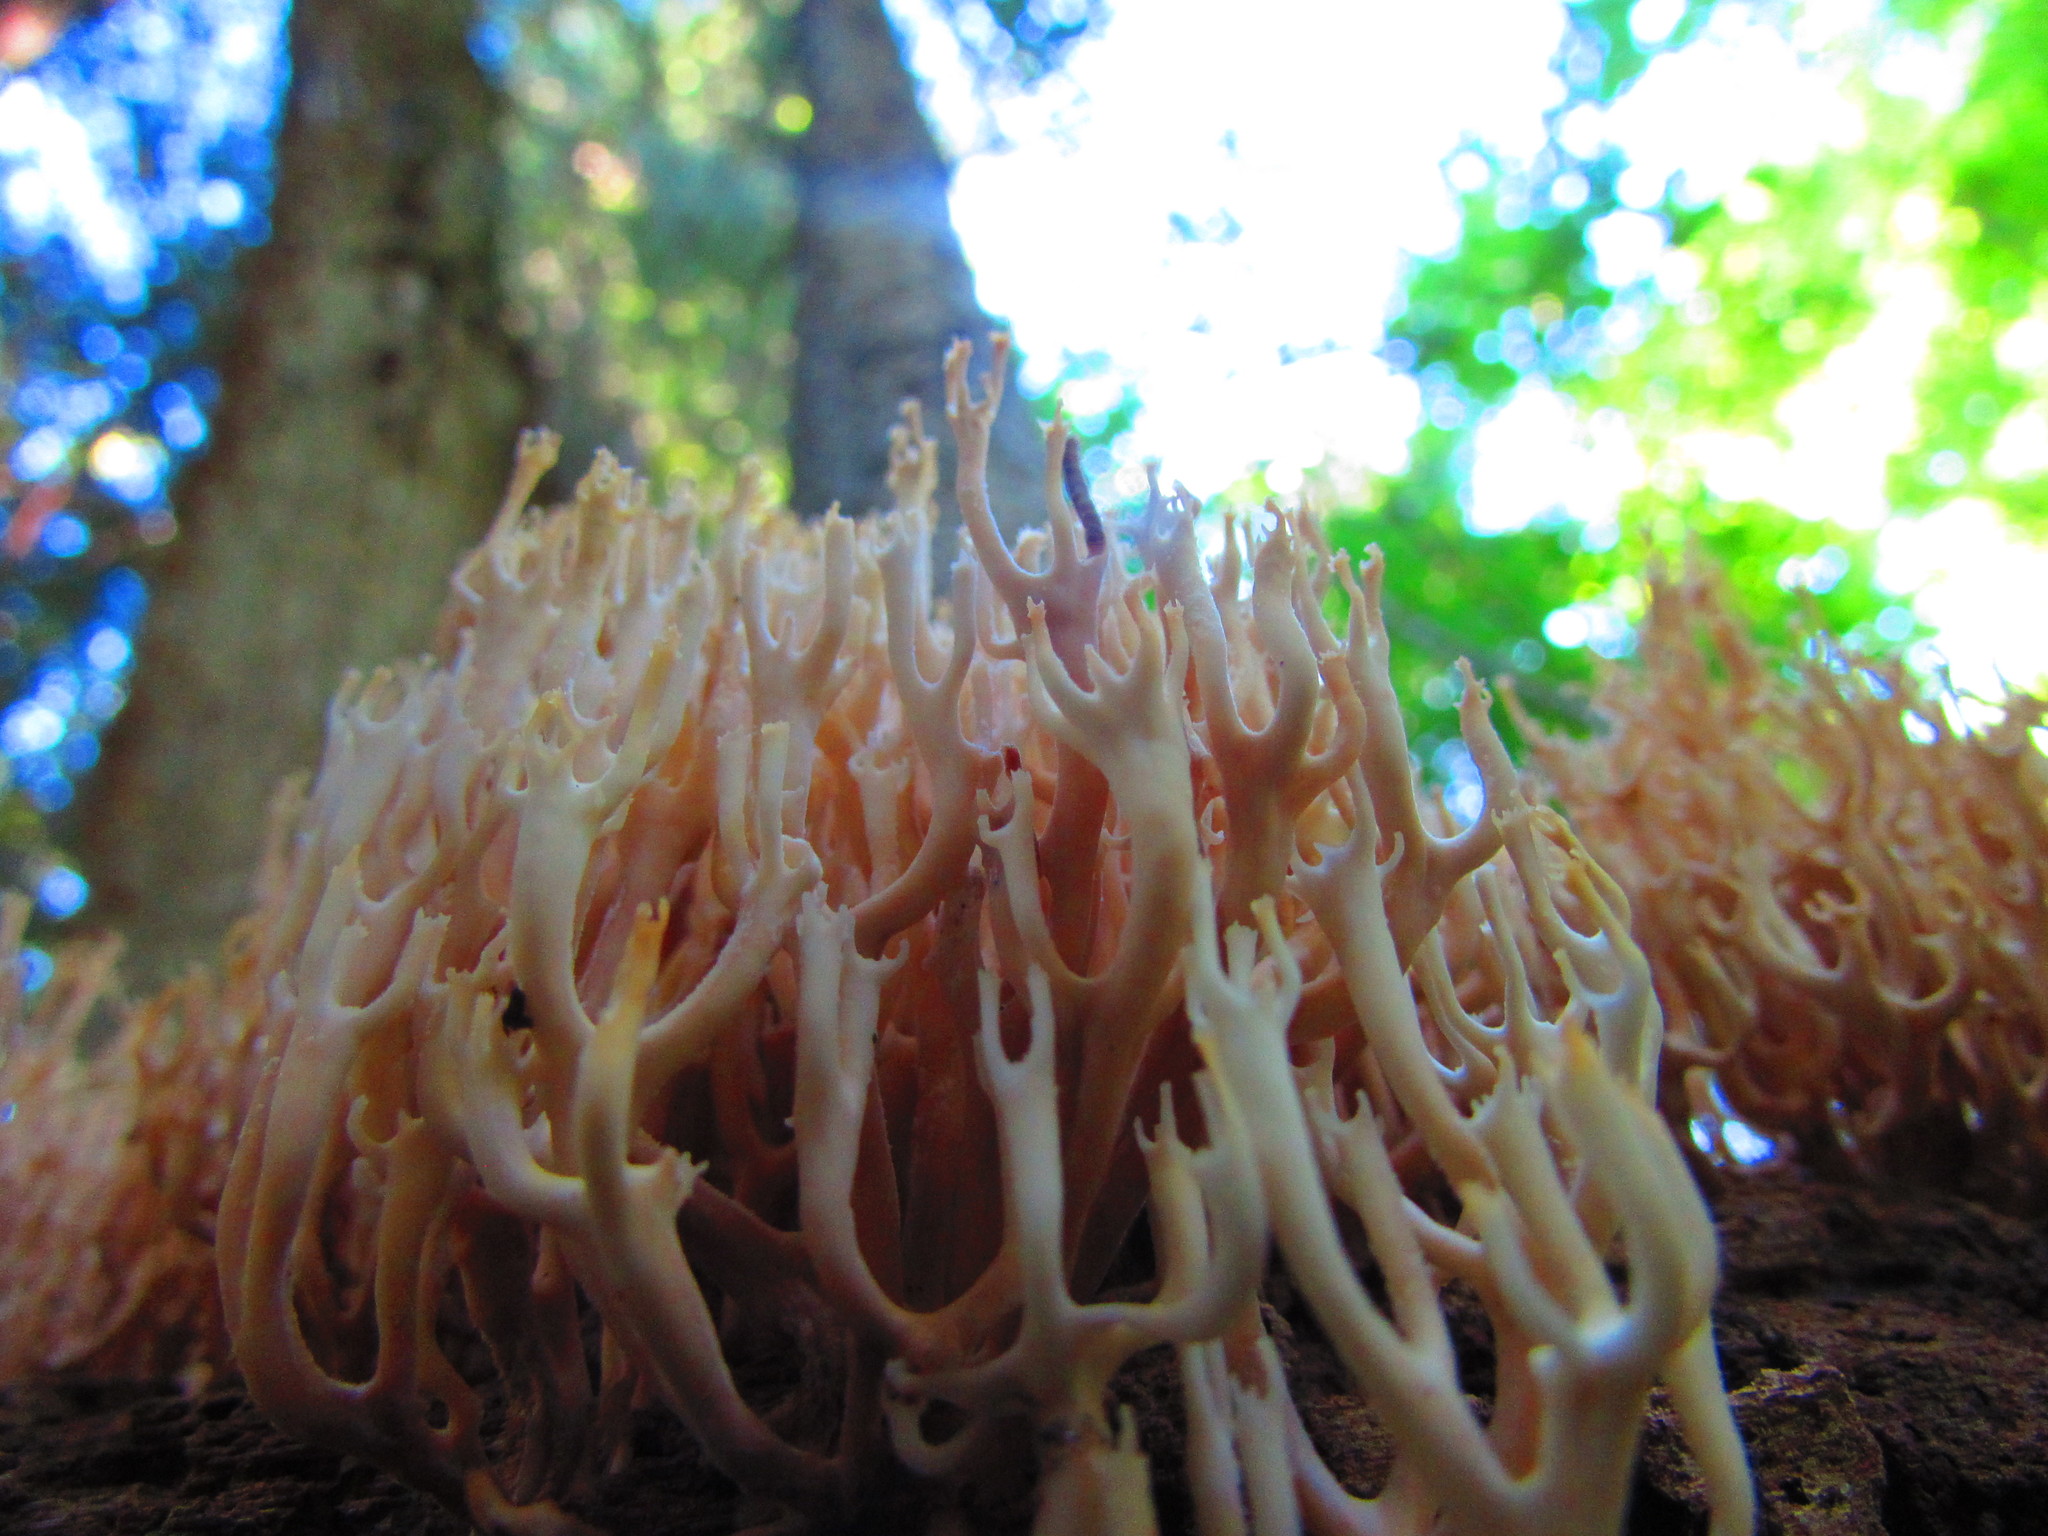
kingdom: Fungi
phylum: Basidiomycota
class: Agaricomycetes
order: Russulales
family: Auriscalpiaceae
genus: Artomyces
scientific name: Artomyces pyxidatus
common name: Crown-tipped coral fungus
